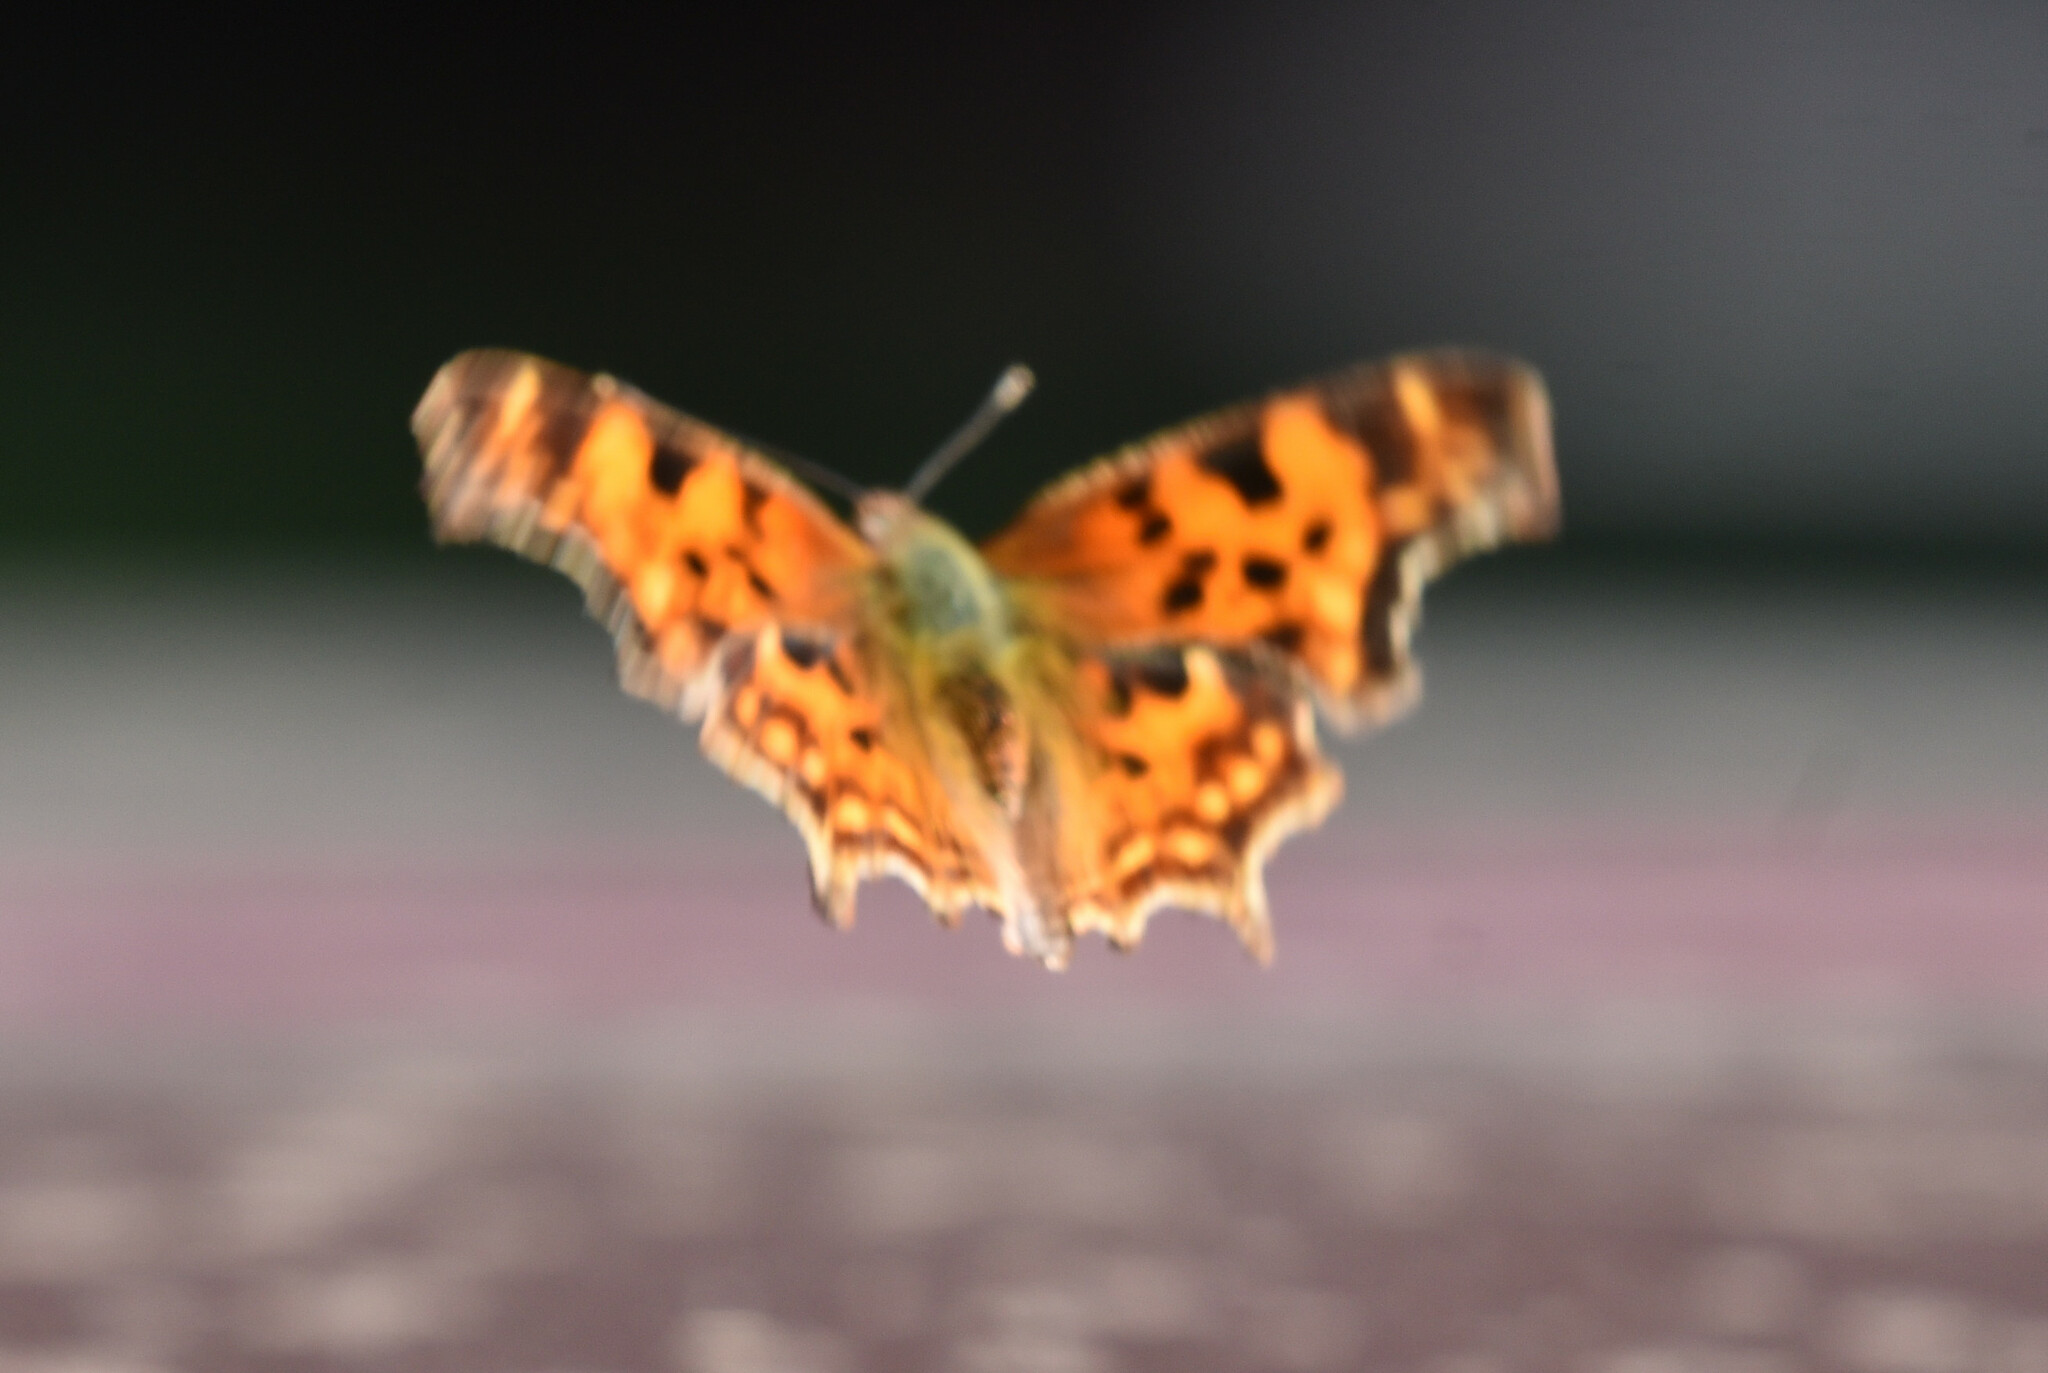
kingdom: Animalia
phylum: Arthropoda
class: Insecta
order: Lepidoptera
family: Nymphalidae
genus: Polygonia
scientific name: Polygonia satyrus
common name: Satyr angle wing
